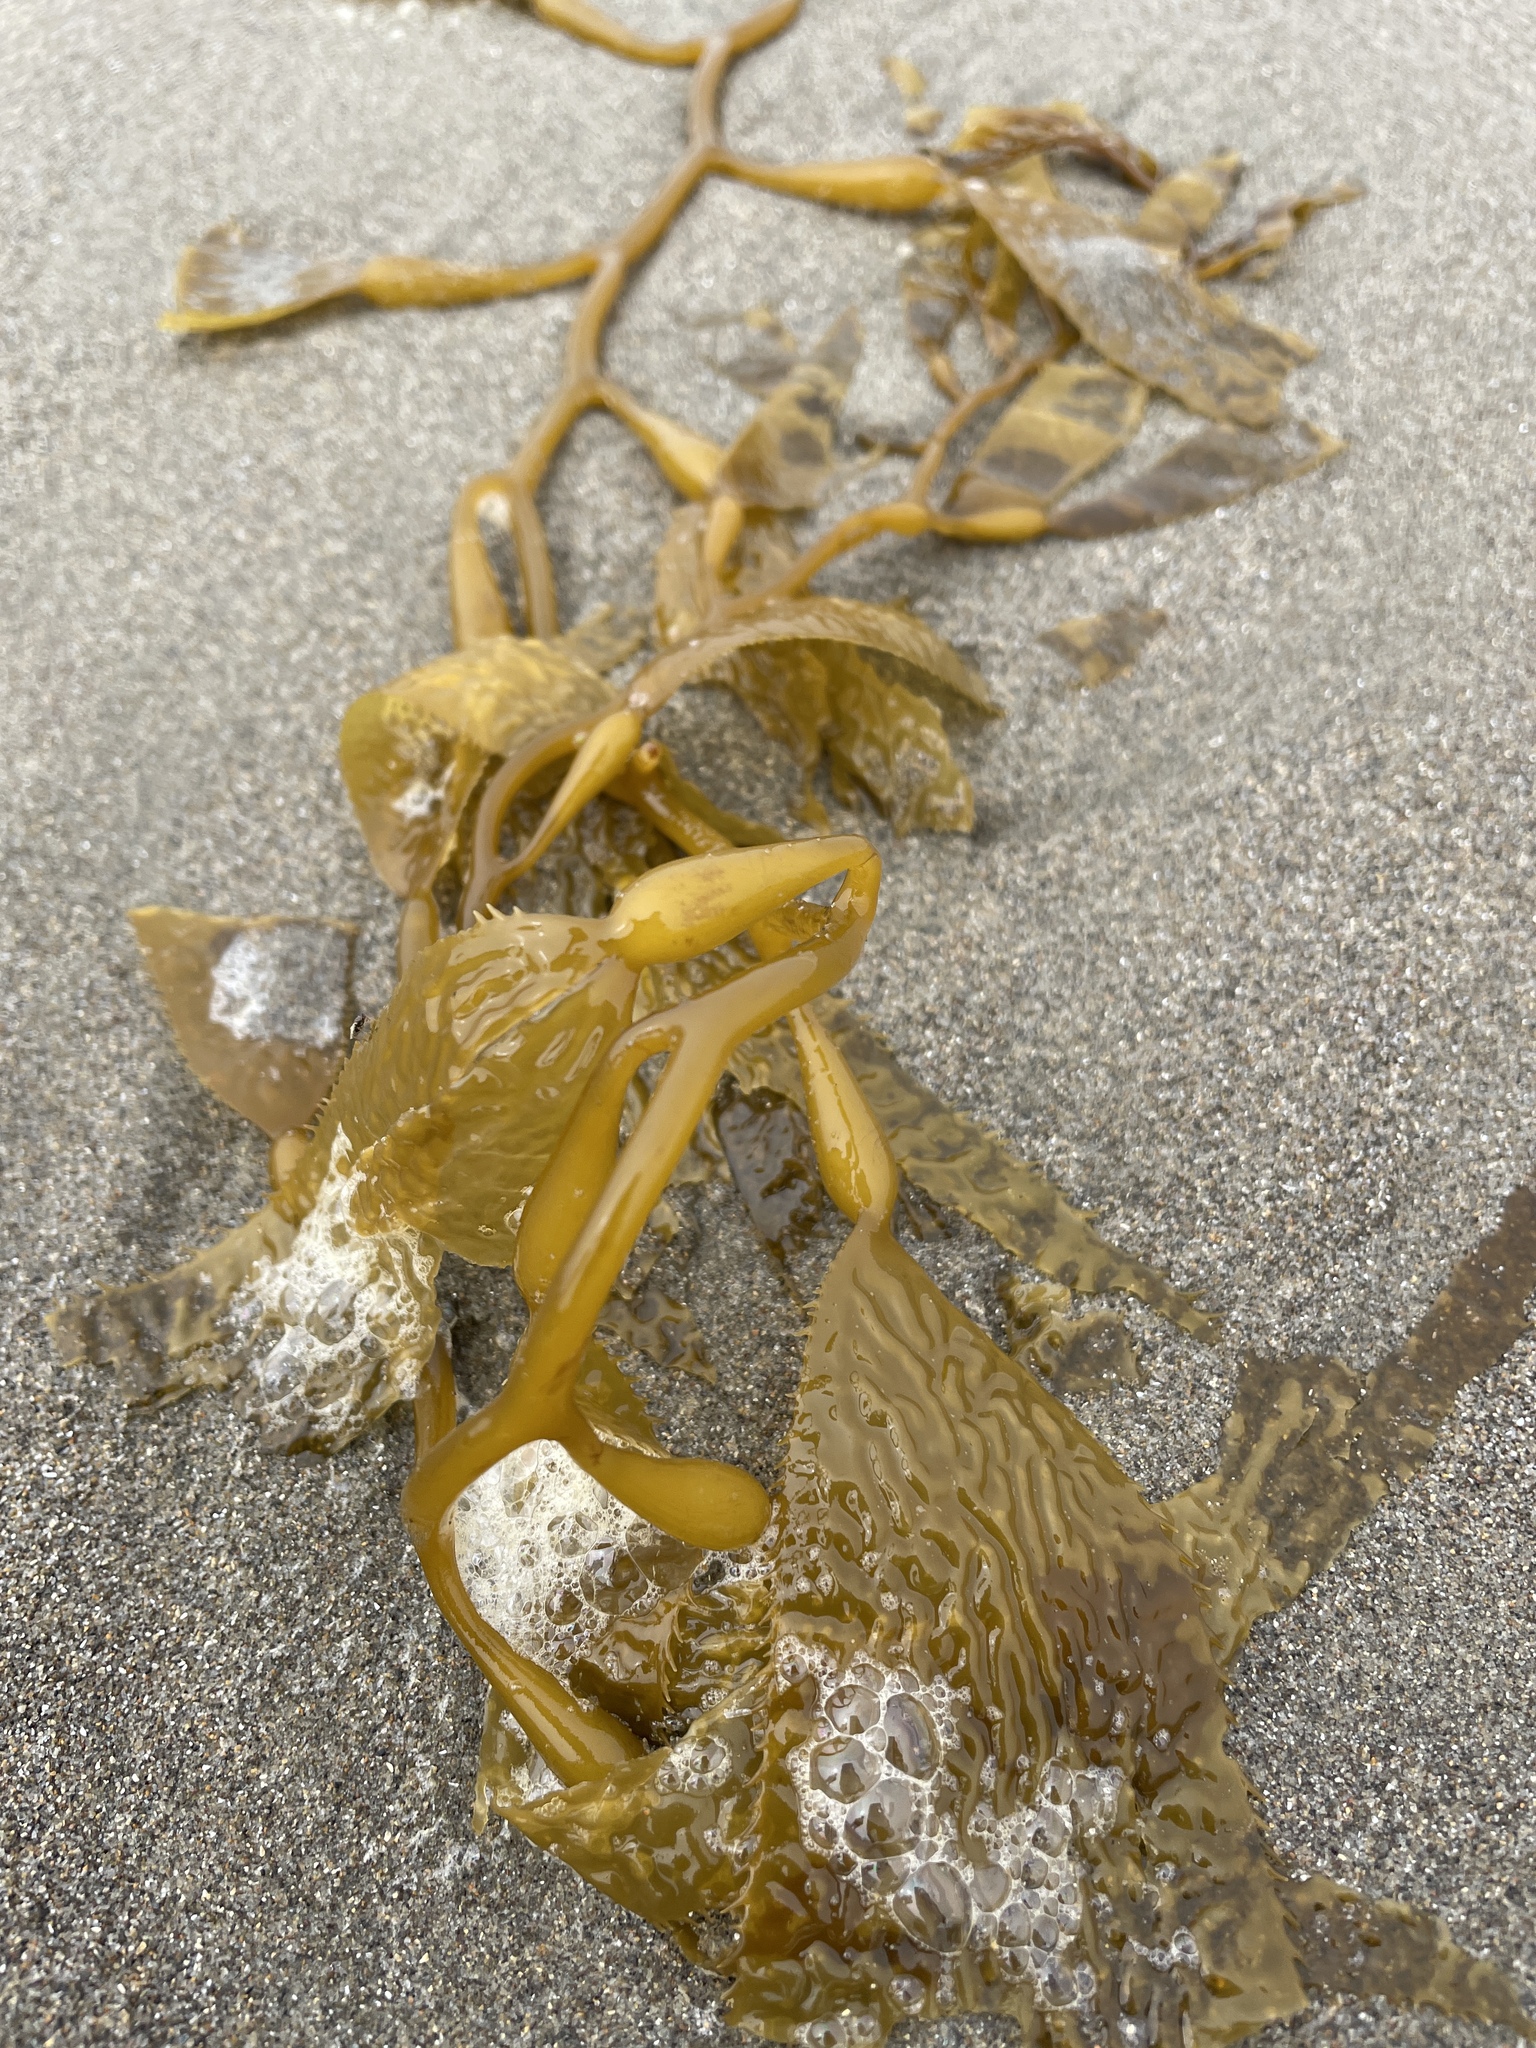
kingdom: Chromista
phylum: Ochrophyta
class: Phaeophyceae
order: Laminariales
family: Laminariaceae
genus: Macrocystis
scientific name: Macrocystis pyrifera
